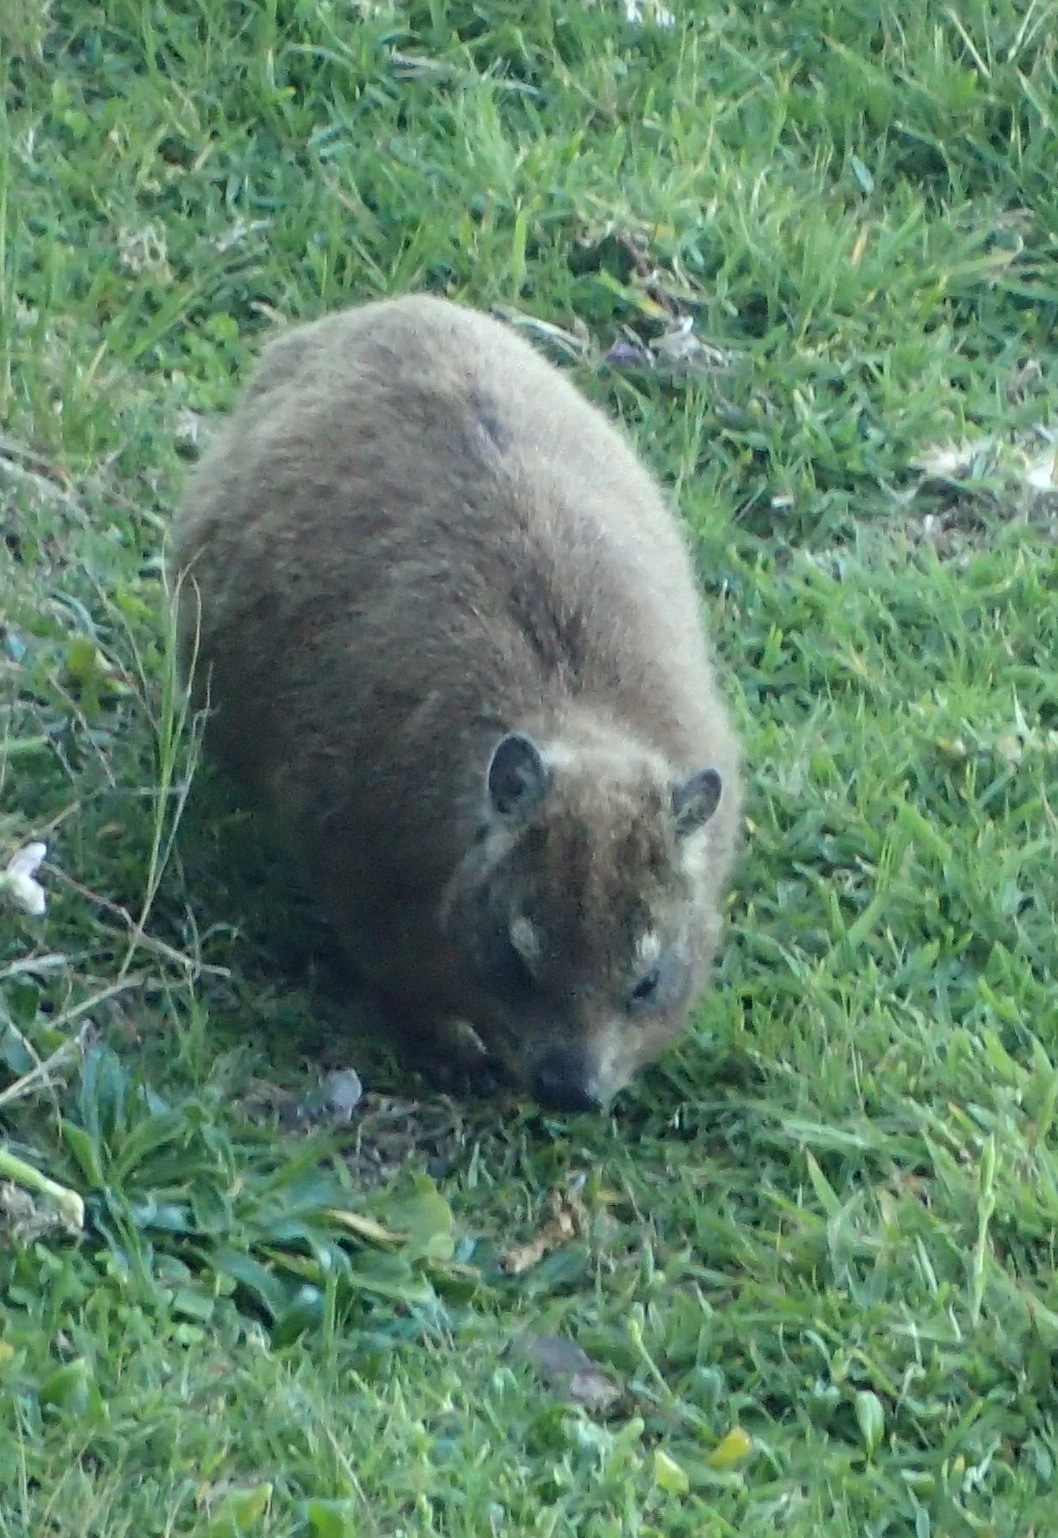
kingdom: Animalia
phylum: Chordata
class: Mammalia
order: Hyracoidea
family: Procaviidae
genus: Procavia
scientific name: Procavia capensis
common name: Rock hyrax
